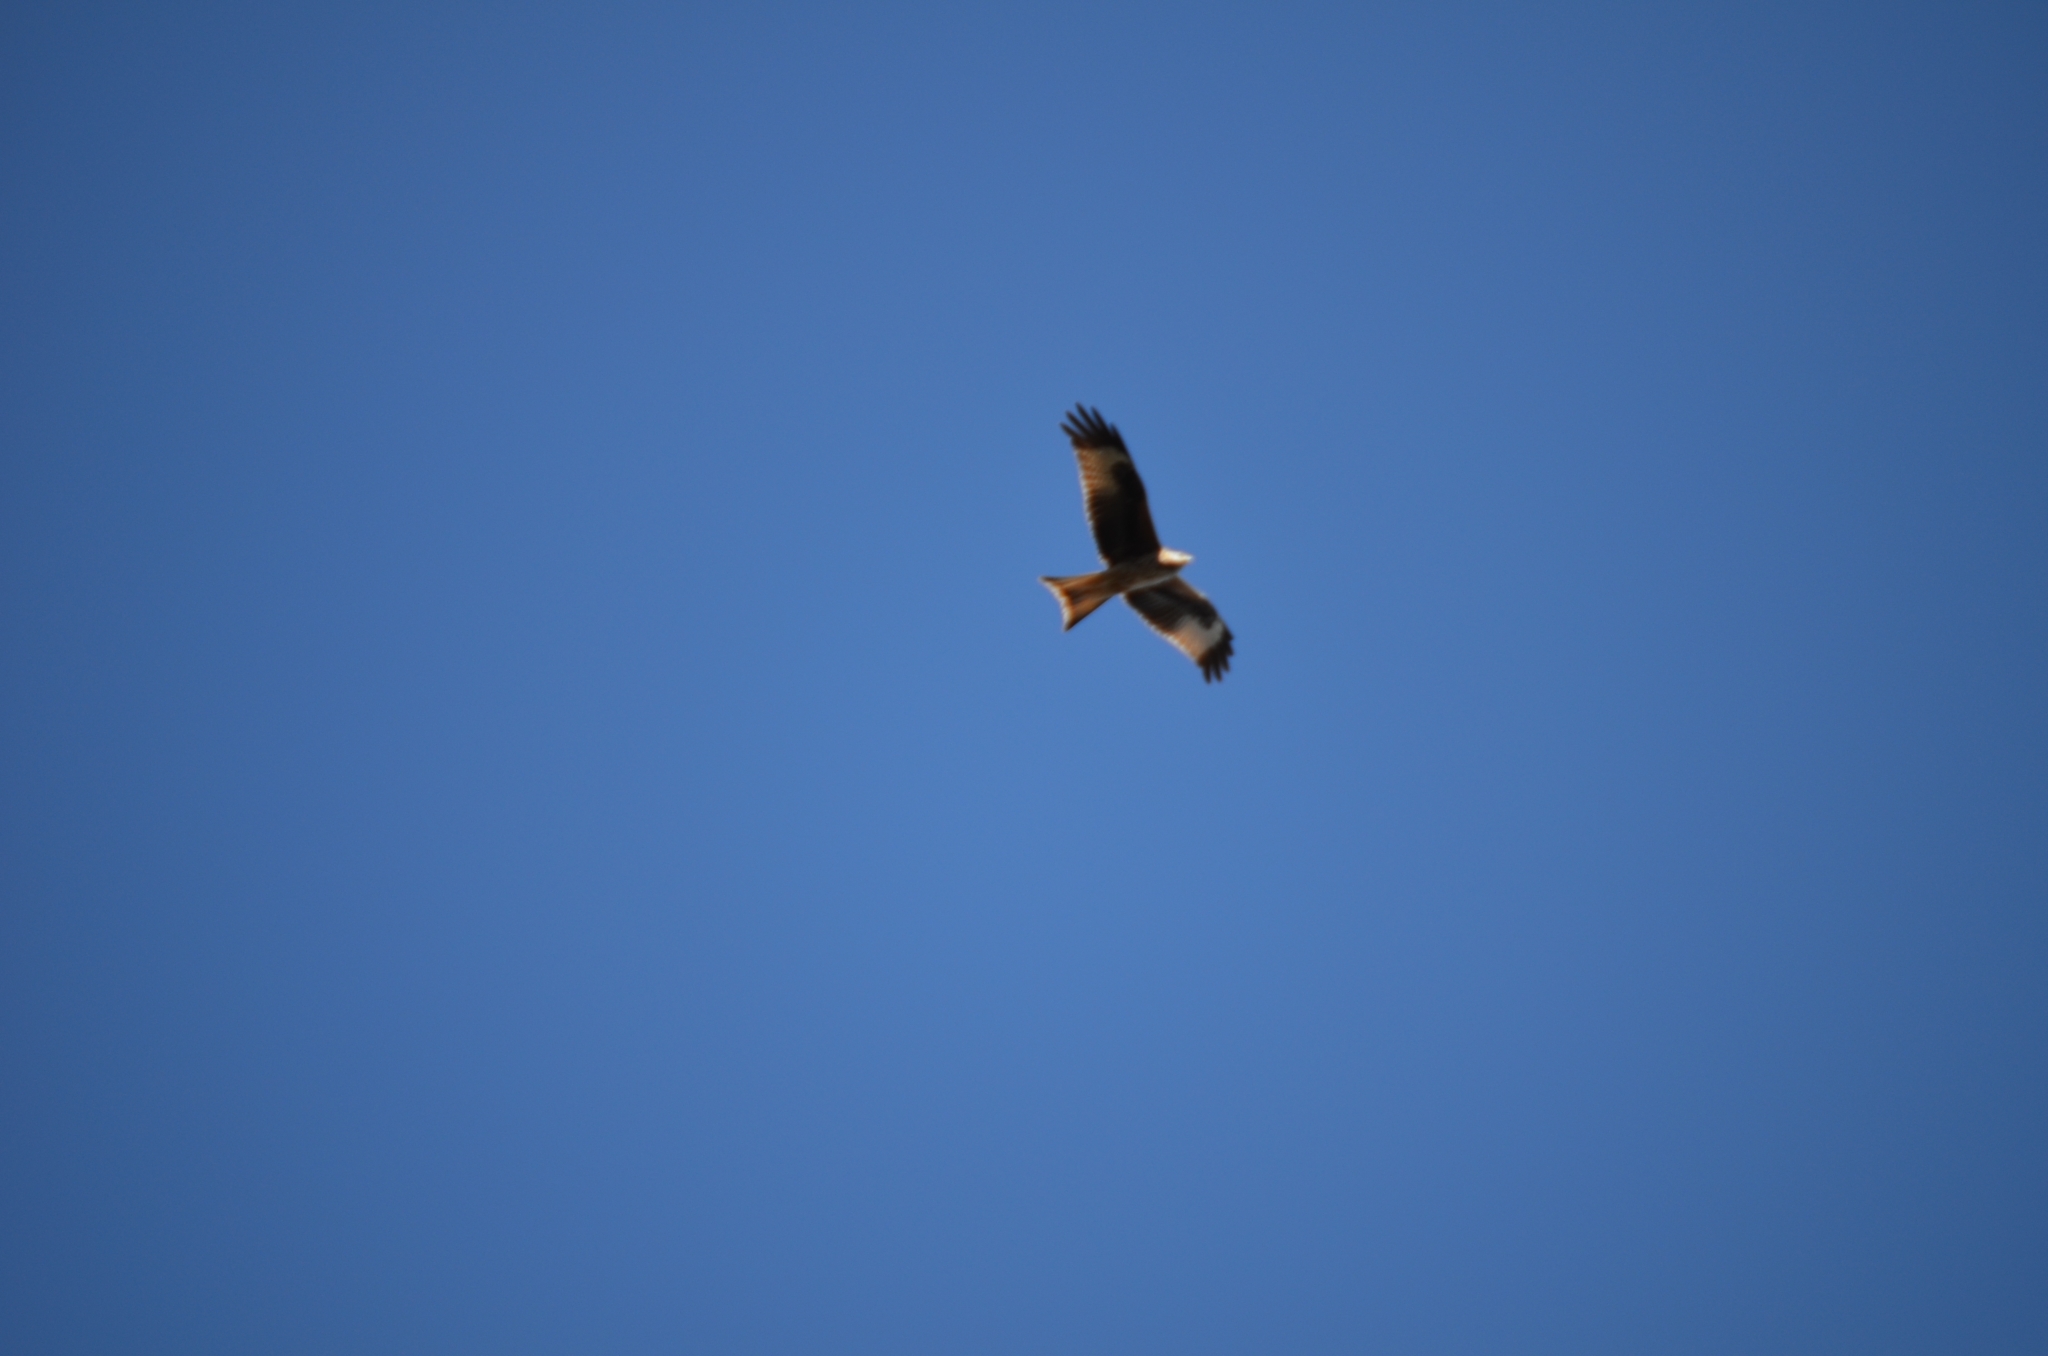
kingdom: Animalia
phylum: Chordata
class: Aves
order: Accipitriformes
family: Accipitridae
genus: Milvus
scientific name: Milvus milvus
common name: Red kite
